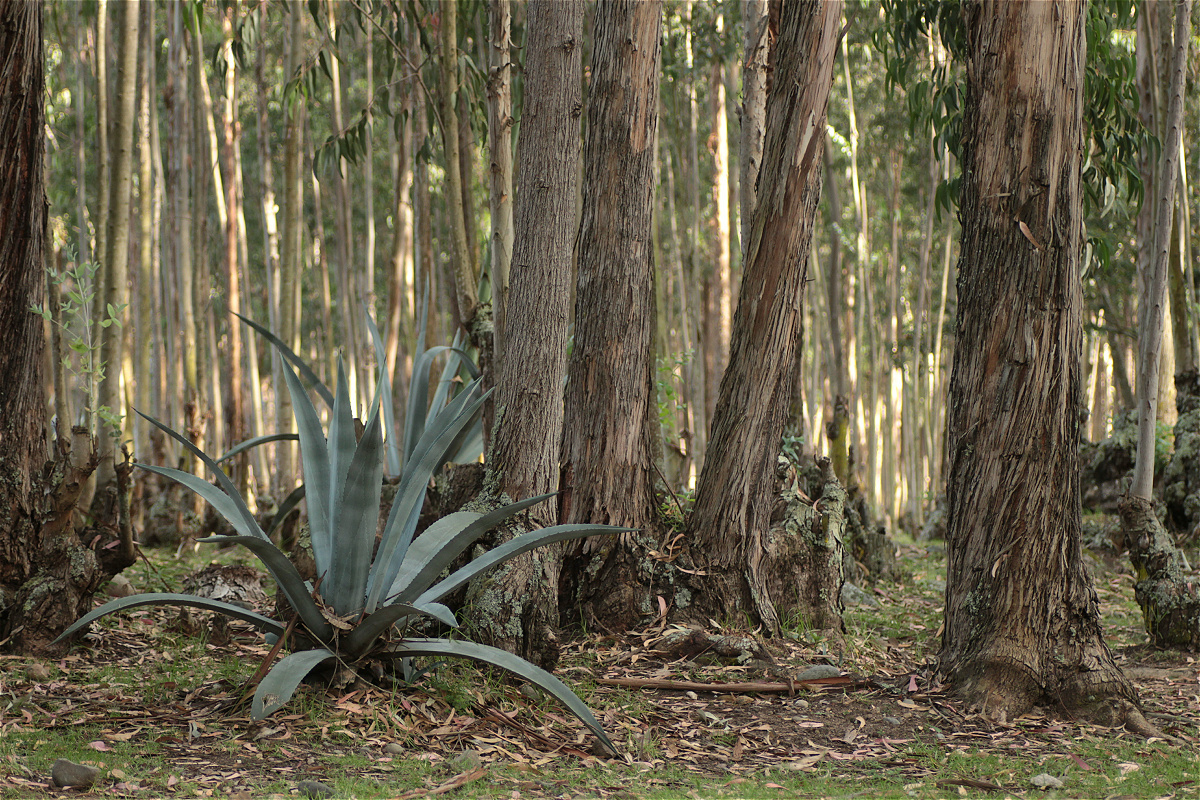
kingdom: Plantae
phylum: Tracheophyta
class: Liliopsida
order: Asparagales
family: Asparagaceae
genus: Agave
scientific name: Agave americana
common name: Centuryplant
